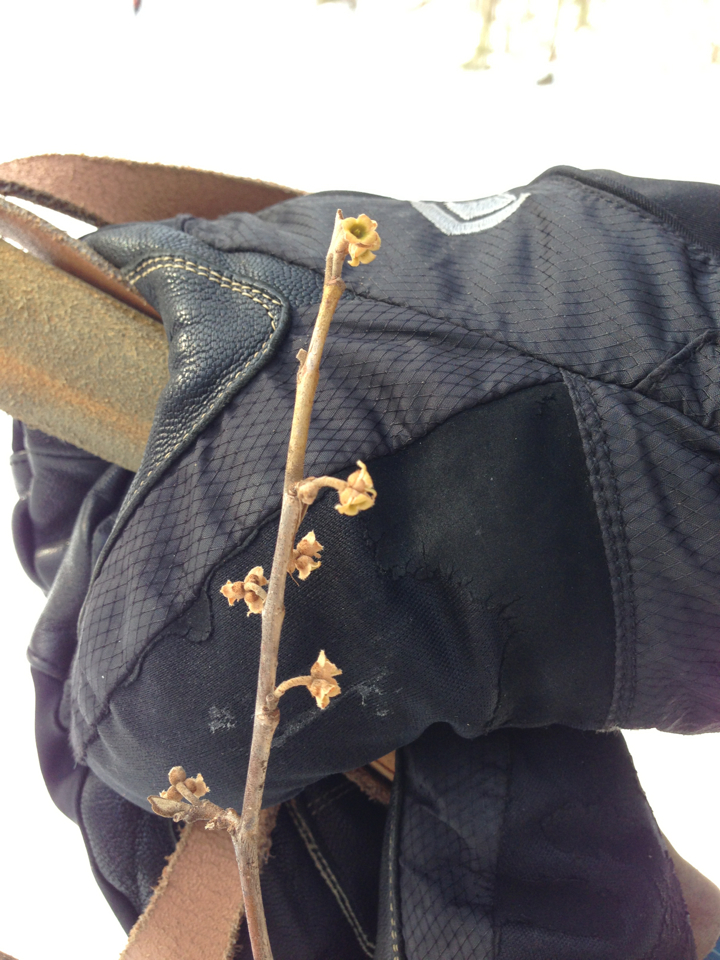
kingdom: Plantae
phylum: Tracheophyta
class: Magnoliopsida
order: Saxifragales
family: Hamamelidaceae
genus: Hamamelis
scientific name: Hamamelis virginiana
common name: Witch-hazel
